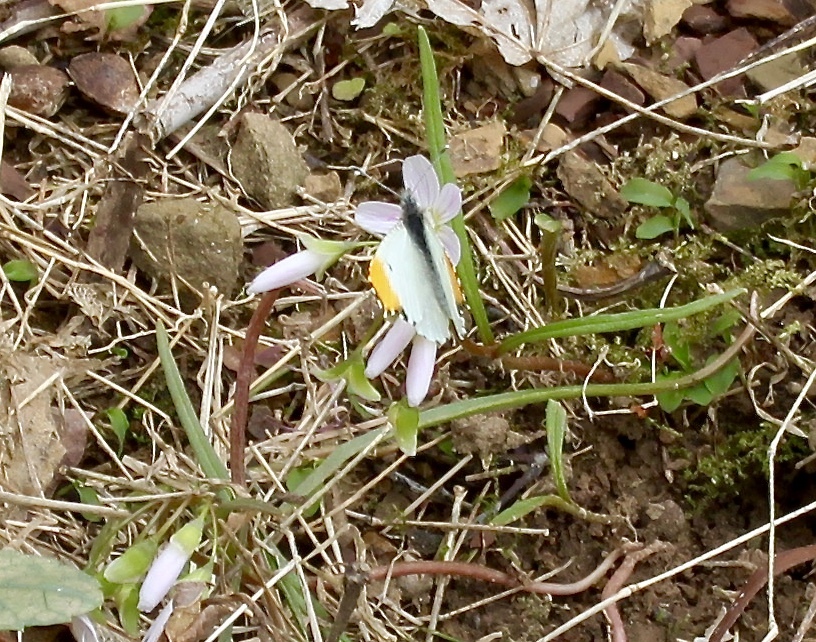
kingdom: Animalia
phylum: Arthropoda
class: Insecta
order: Lepidoptera
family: Pieridae
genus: Anthocharis
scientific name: Anthocharis midea
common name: Falcate orangetip
